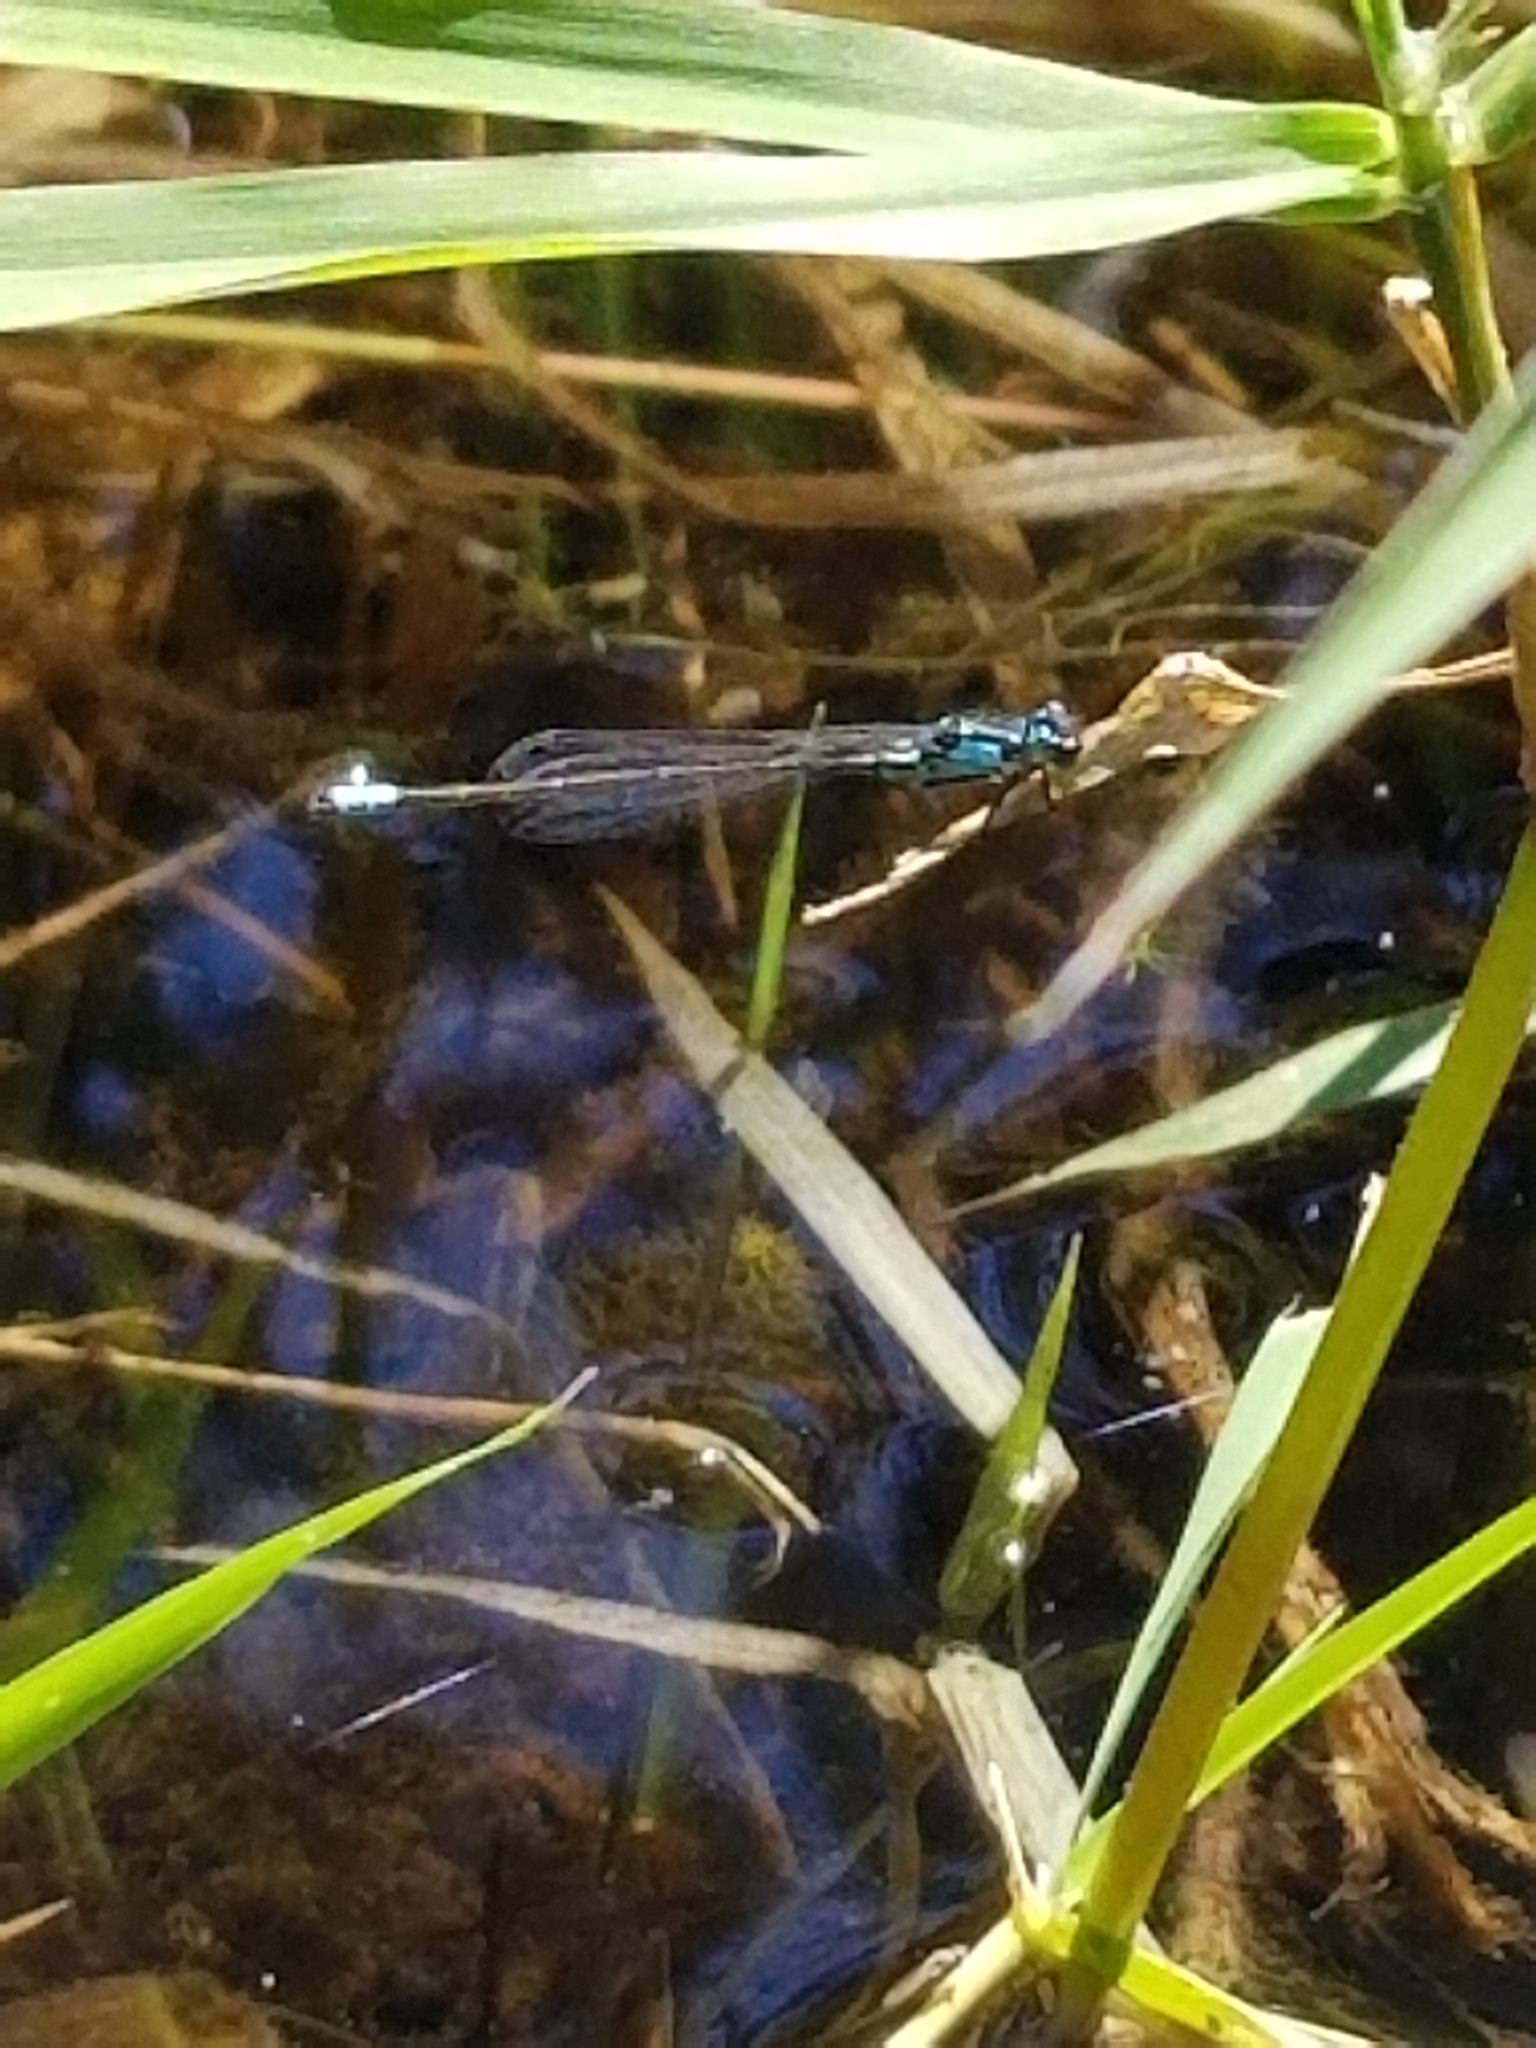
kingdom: Animalia
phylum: Arthropoda
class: Insecta
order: Odonata
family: Coenagrionidae
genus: Ischnura
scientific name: Ischnura cervula
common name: Pacific forktail
